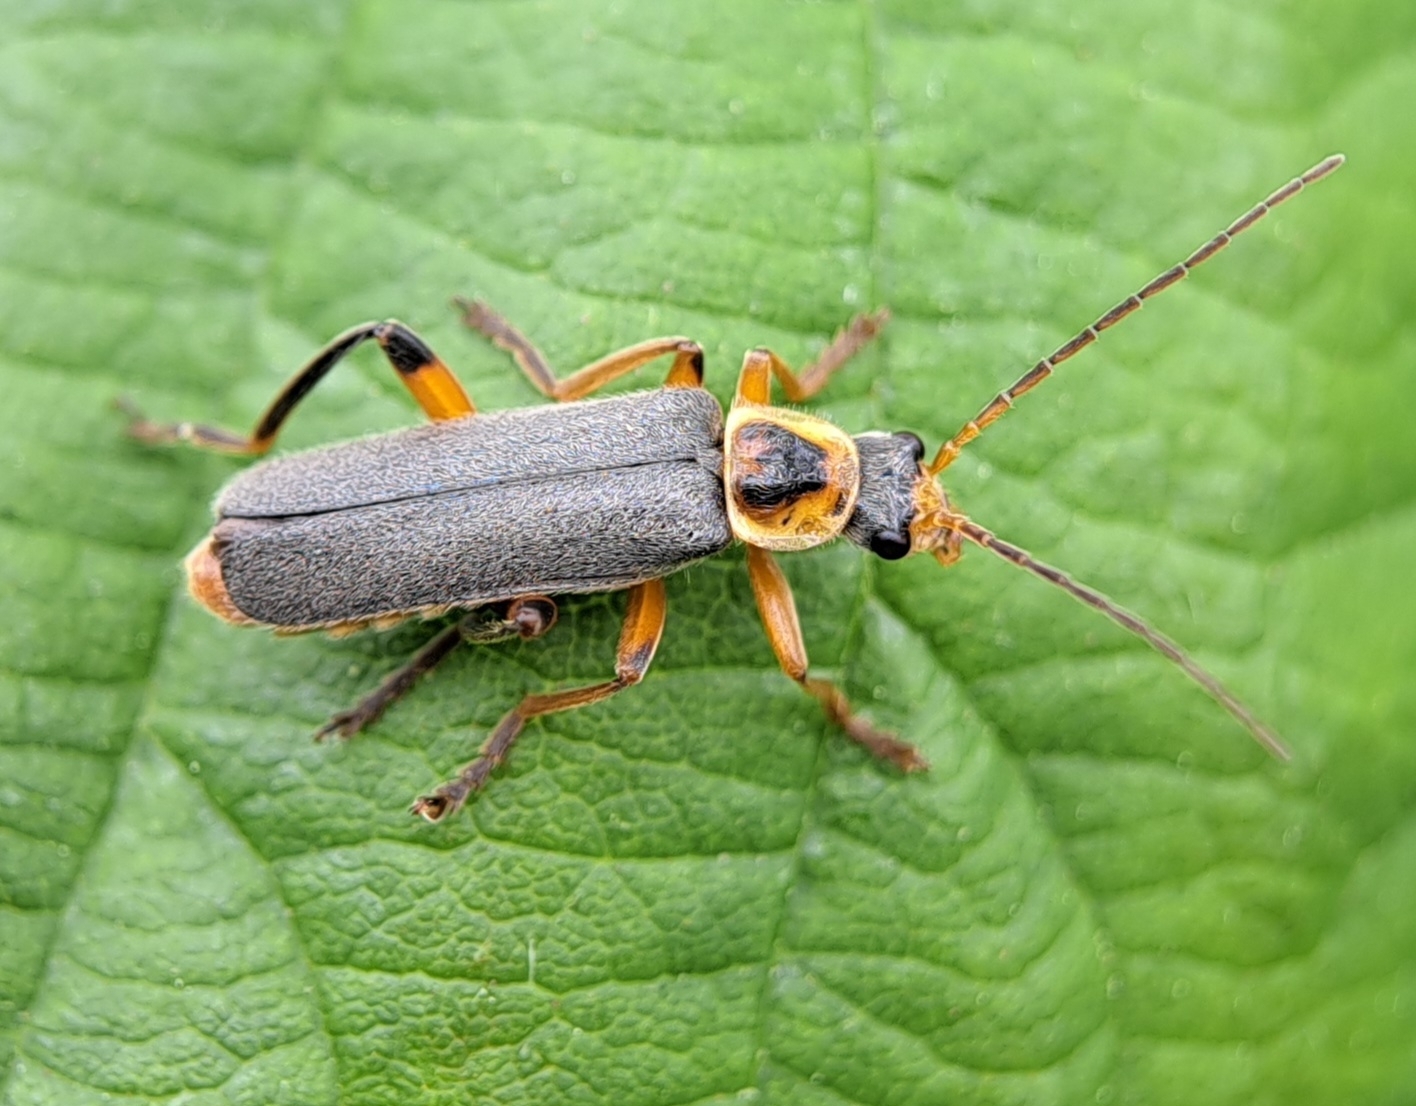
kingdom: Animalia
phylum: Arthropoda
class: Insecta
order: Coleoptera
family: Cantharidae
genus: Cantharis
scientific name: Cantharis nigricans
